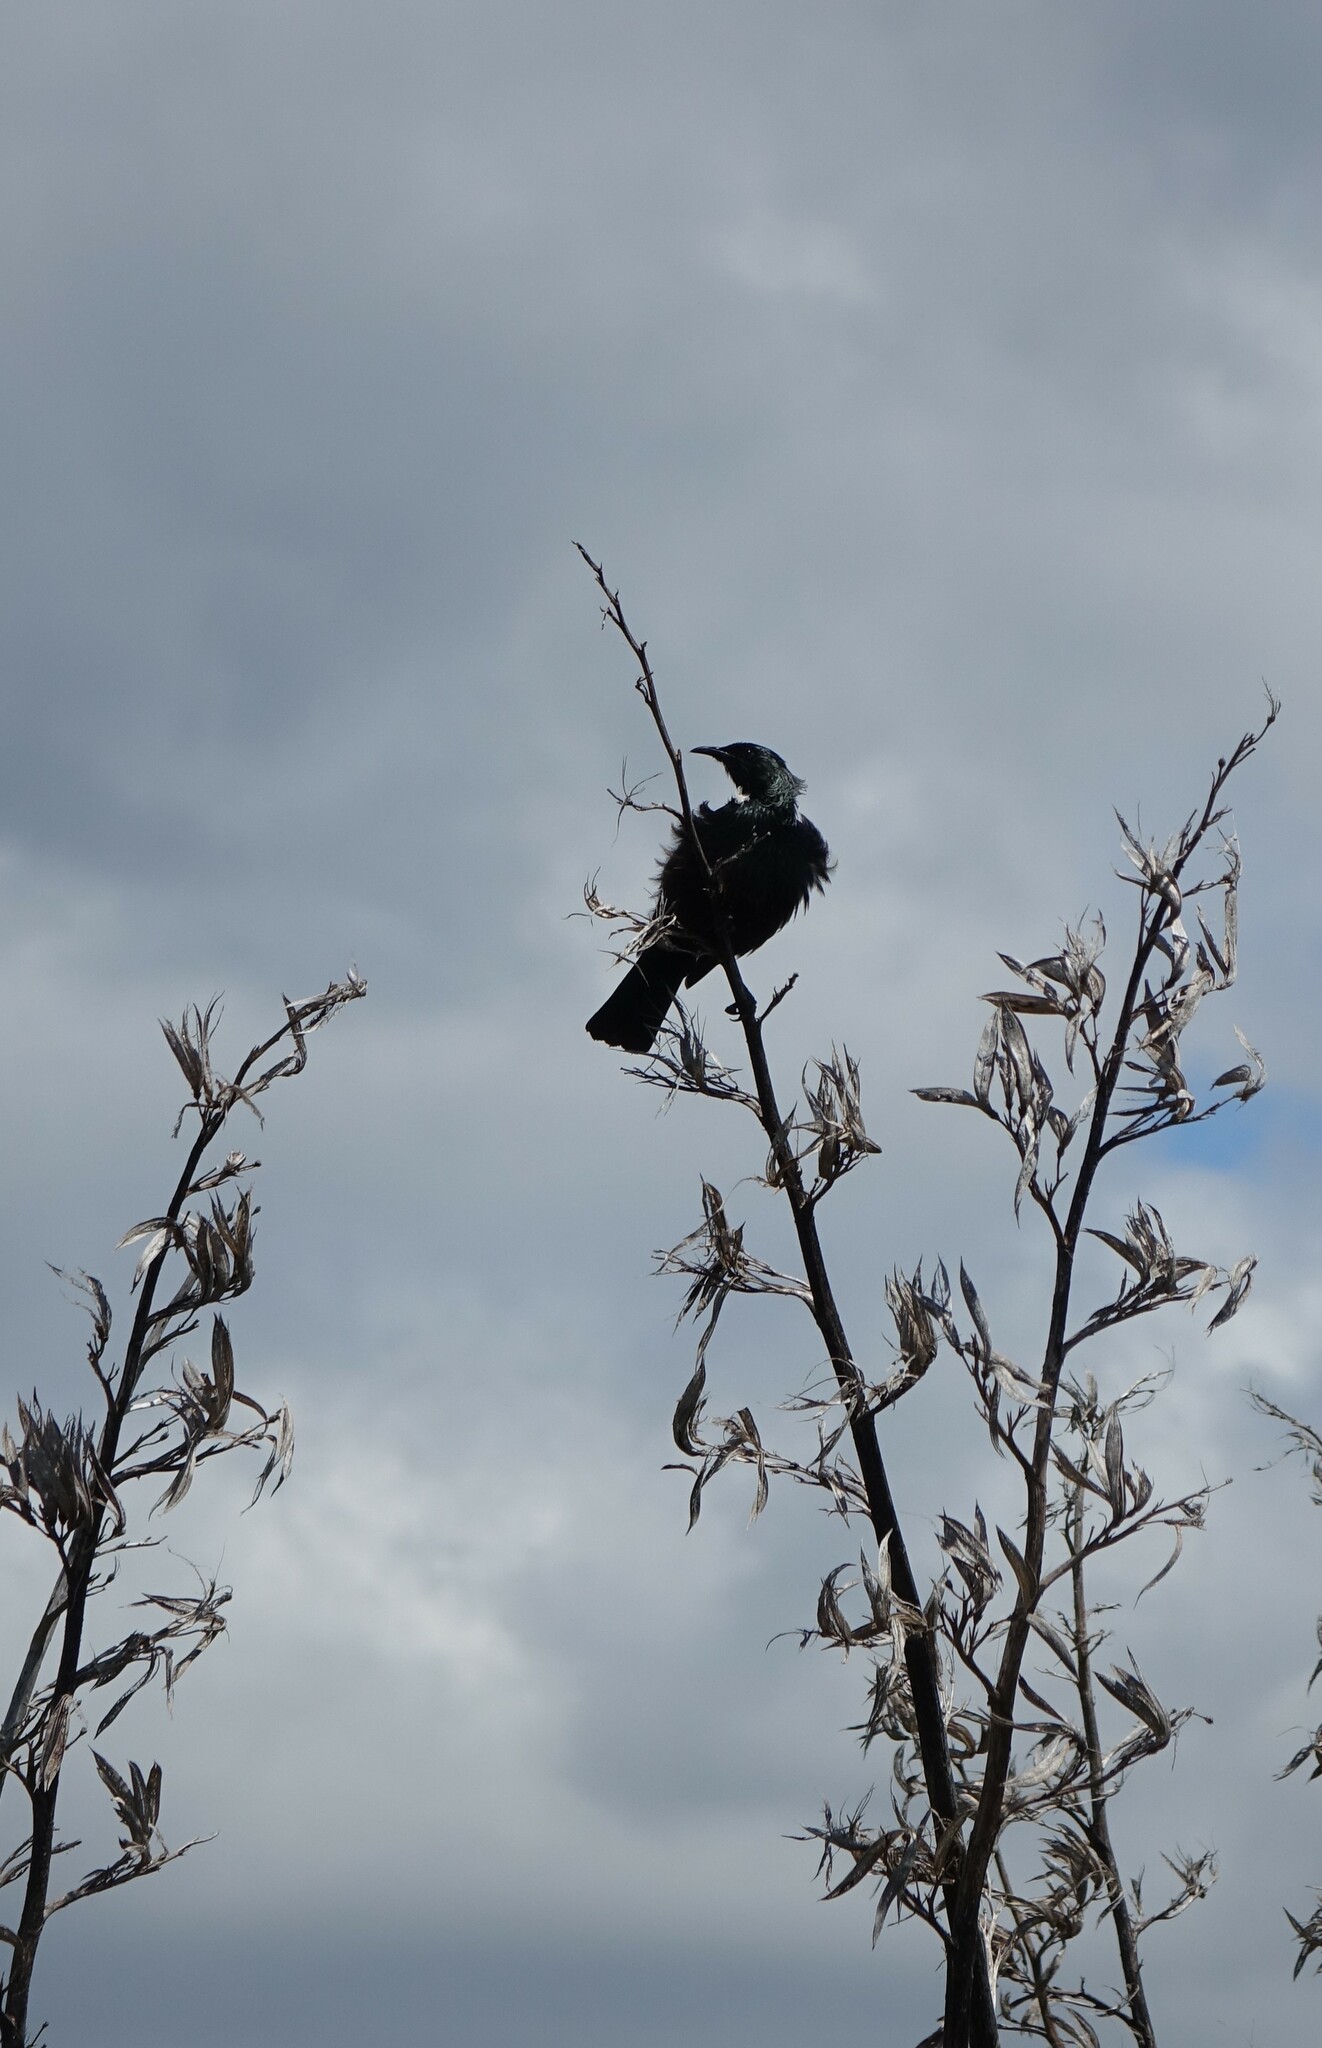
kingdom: Animalia
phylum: Chordata
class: Aves
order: Passeriformes
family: Meliphagidae
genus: Prosthemadera
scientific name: Prosthemadera novaeseelandiae
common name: Tui
